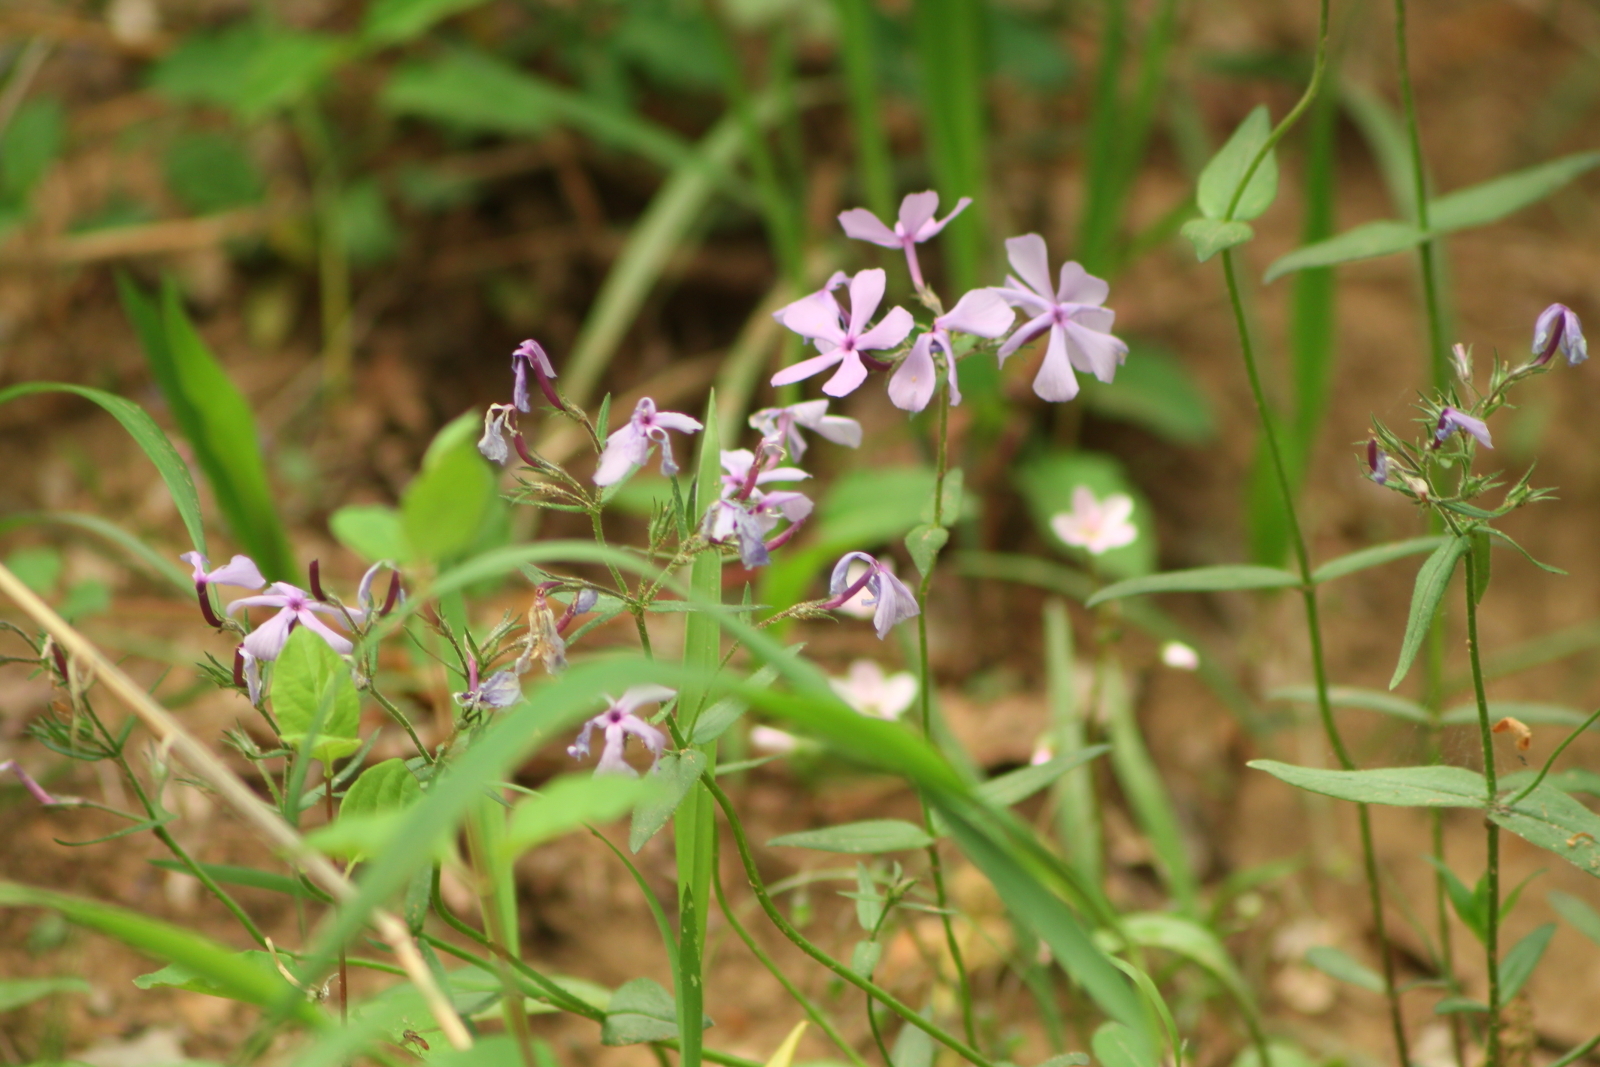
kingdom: Plantae
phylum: Tracheophyta
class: Magnoliopsida
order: Ericales
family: Polemoniaceae
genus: Phlox
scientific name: Phlox pilosa
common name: Prairie phlox
